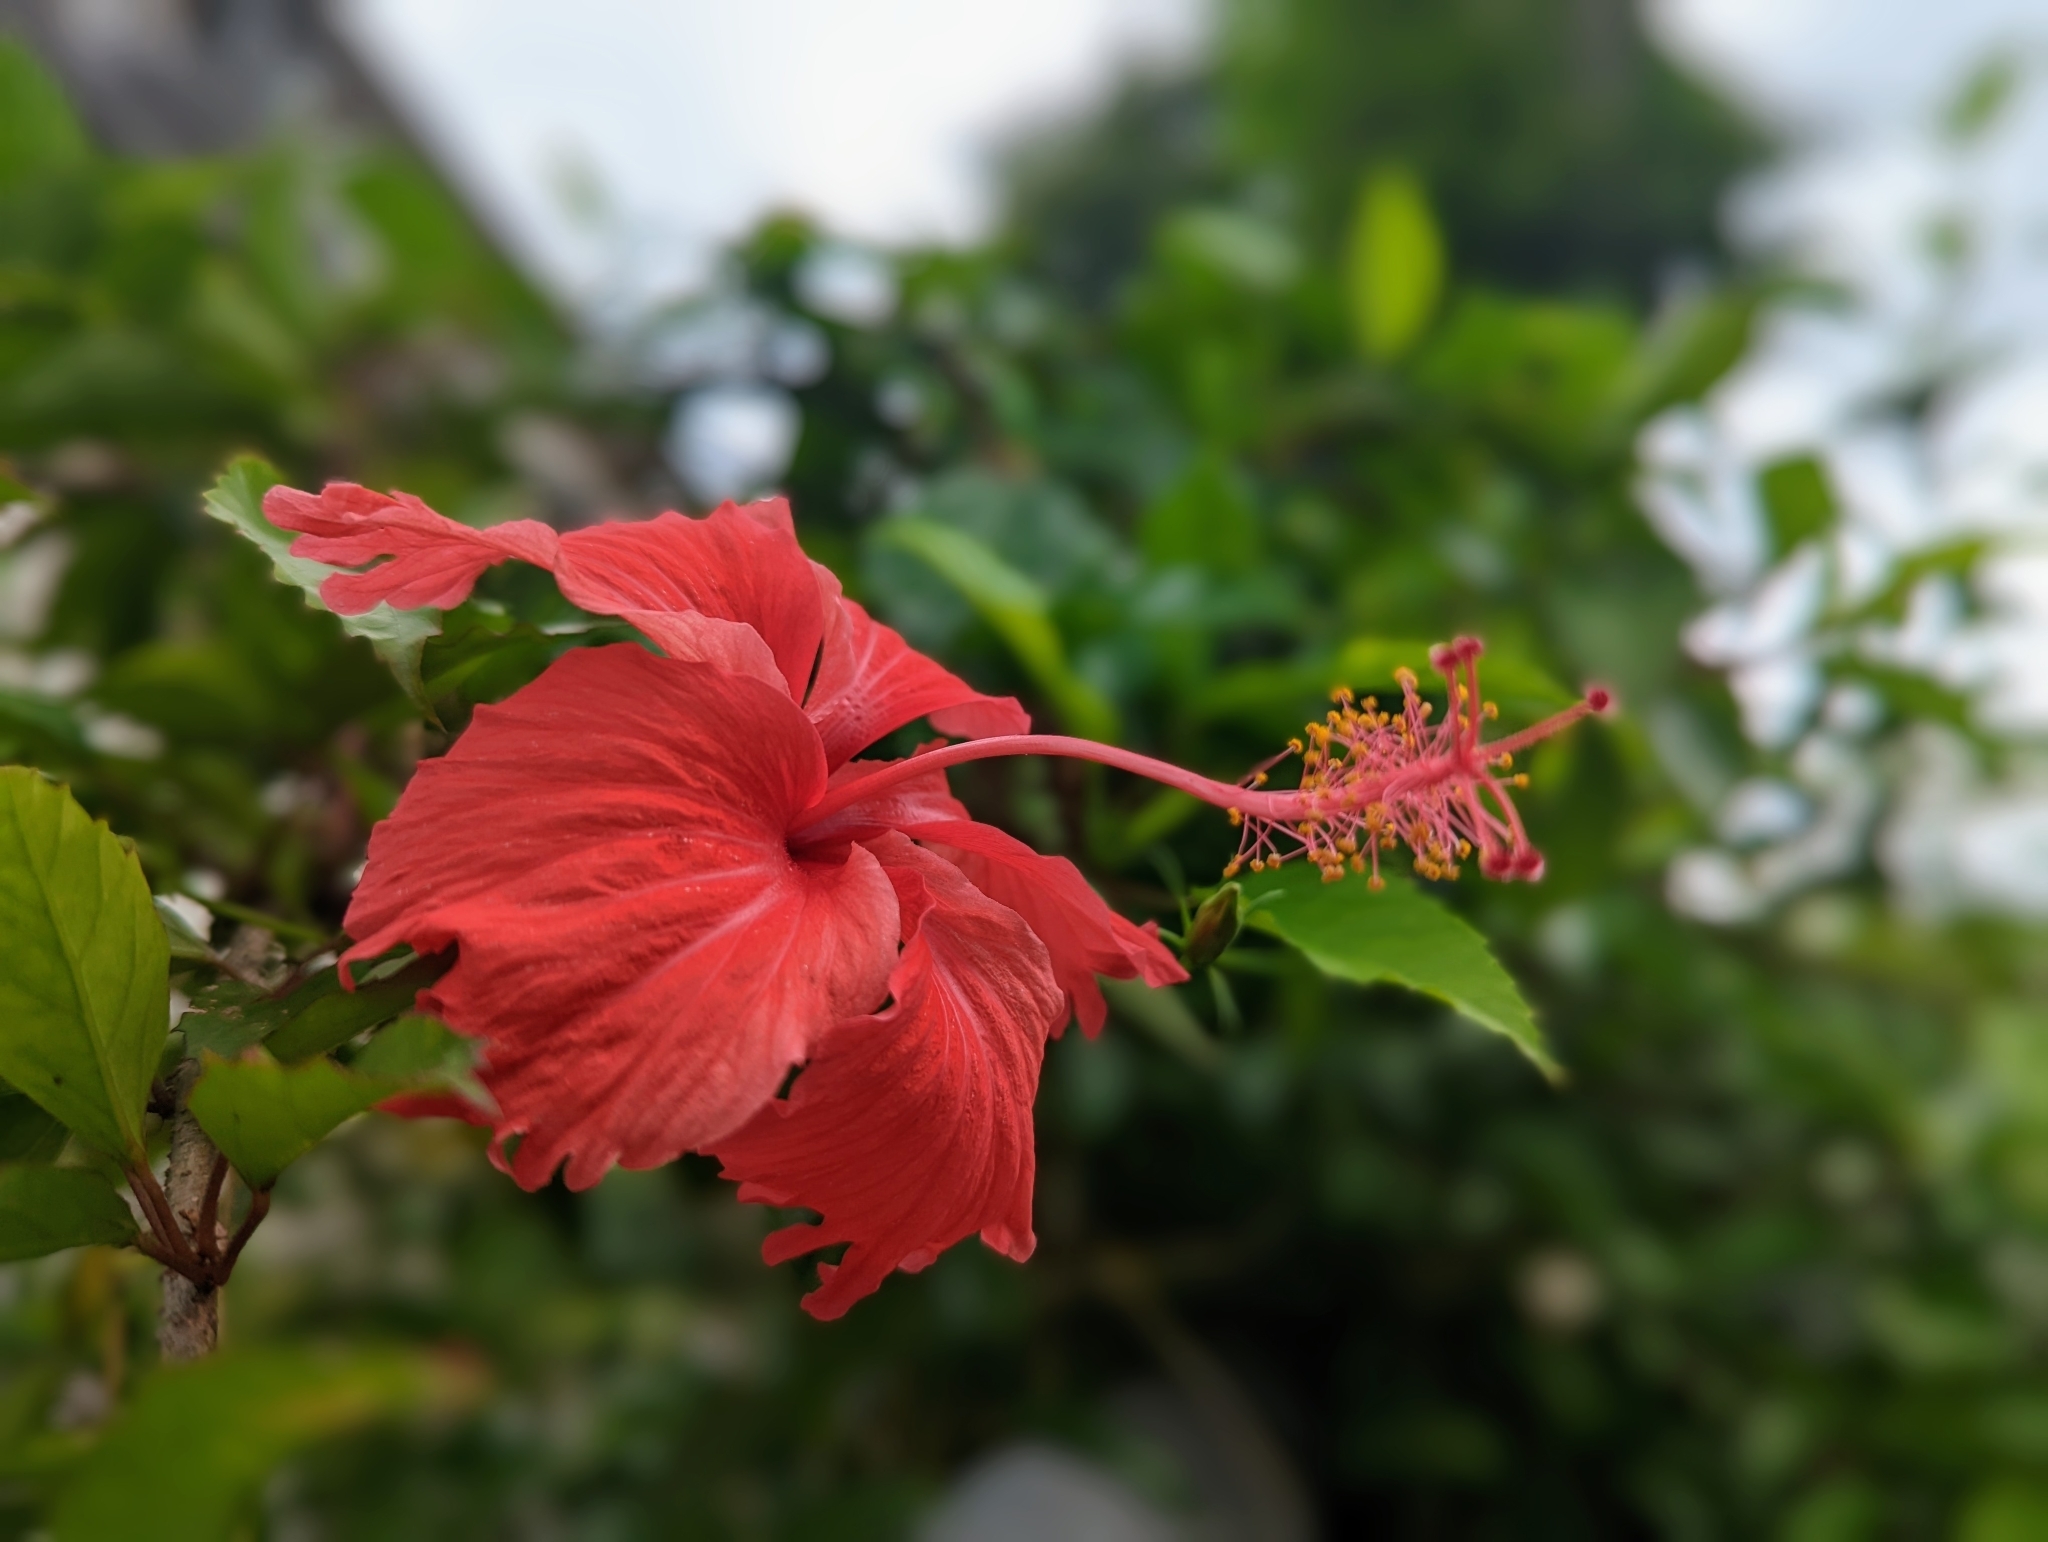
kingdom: Plantae
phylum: Tracheophyta
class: Magnoliopsida
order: Malvales
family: Malvaceae
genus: Hibiscus
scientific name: Hibiscus archeri
